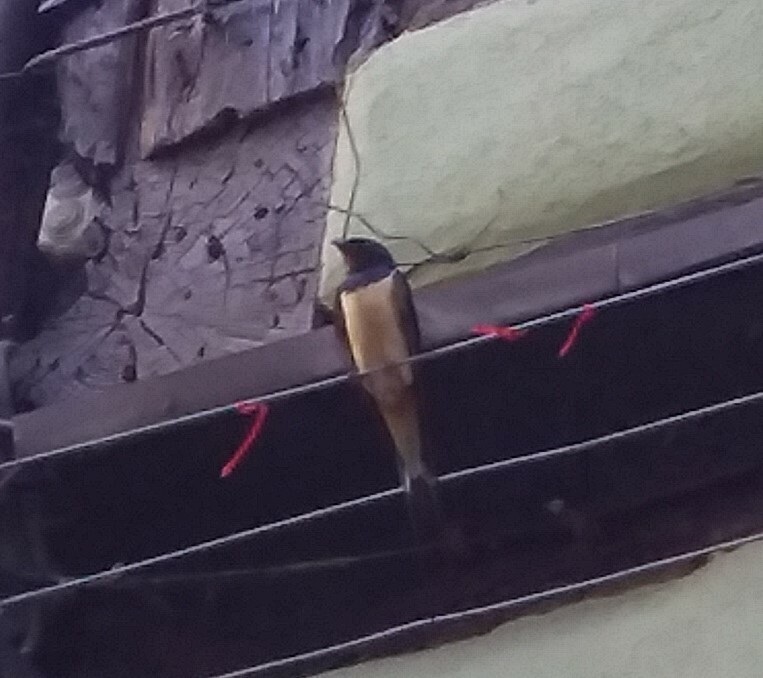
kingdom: Animalia
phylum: Chordata
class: Aves
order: Passeriformes
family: Hirundinidae
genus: Hirundo
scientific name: Hirundo rustica
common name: Barn swallow
